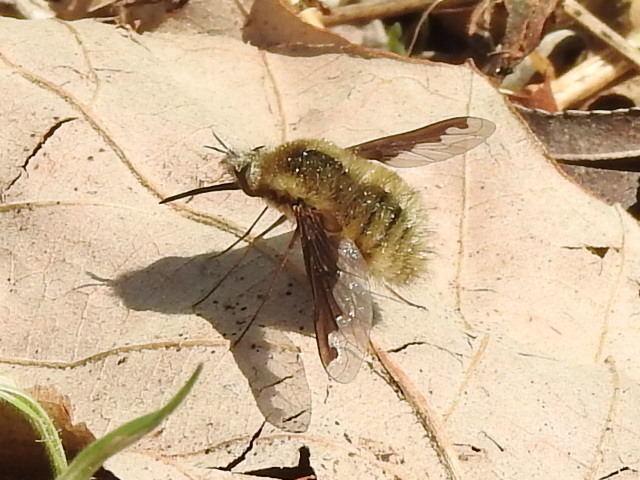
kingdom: Animalia
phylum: Arthropoda
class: Insecta
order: Diptera
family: Bombyliidae
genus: Bombylius
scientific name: Bombylius major
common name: Bee fly
